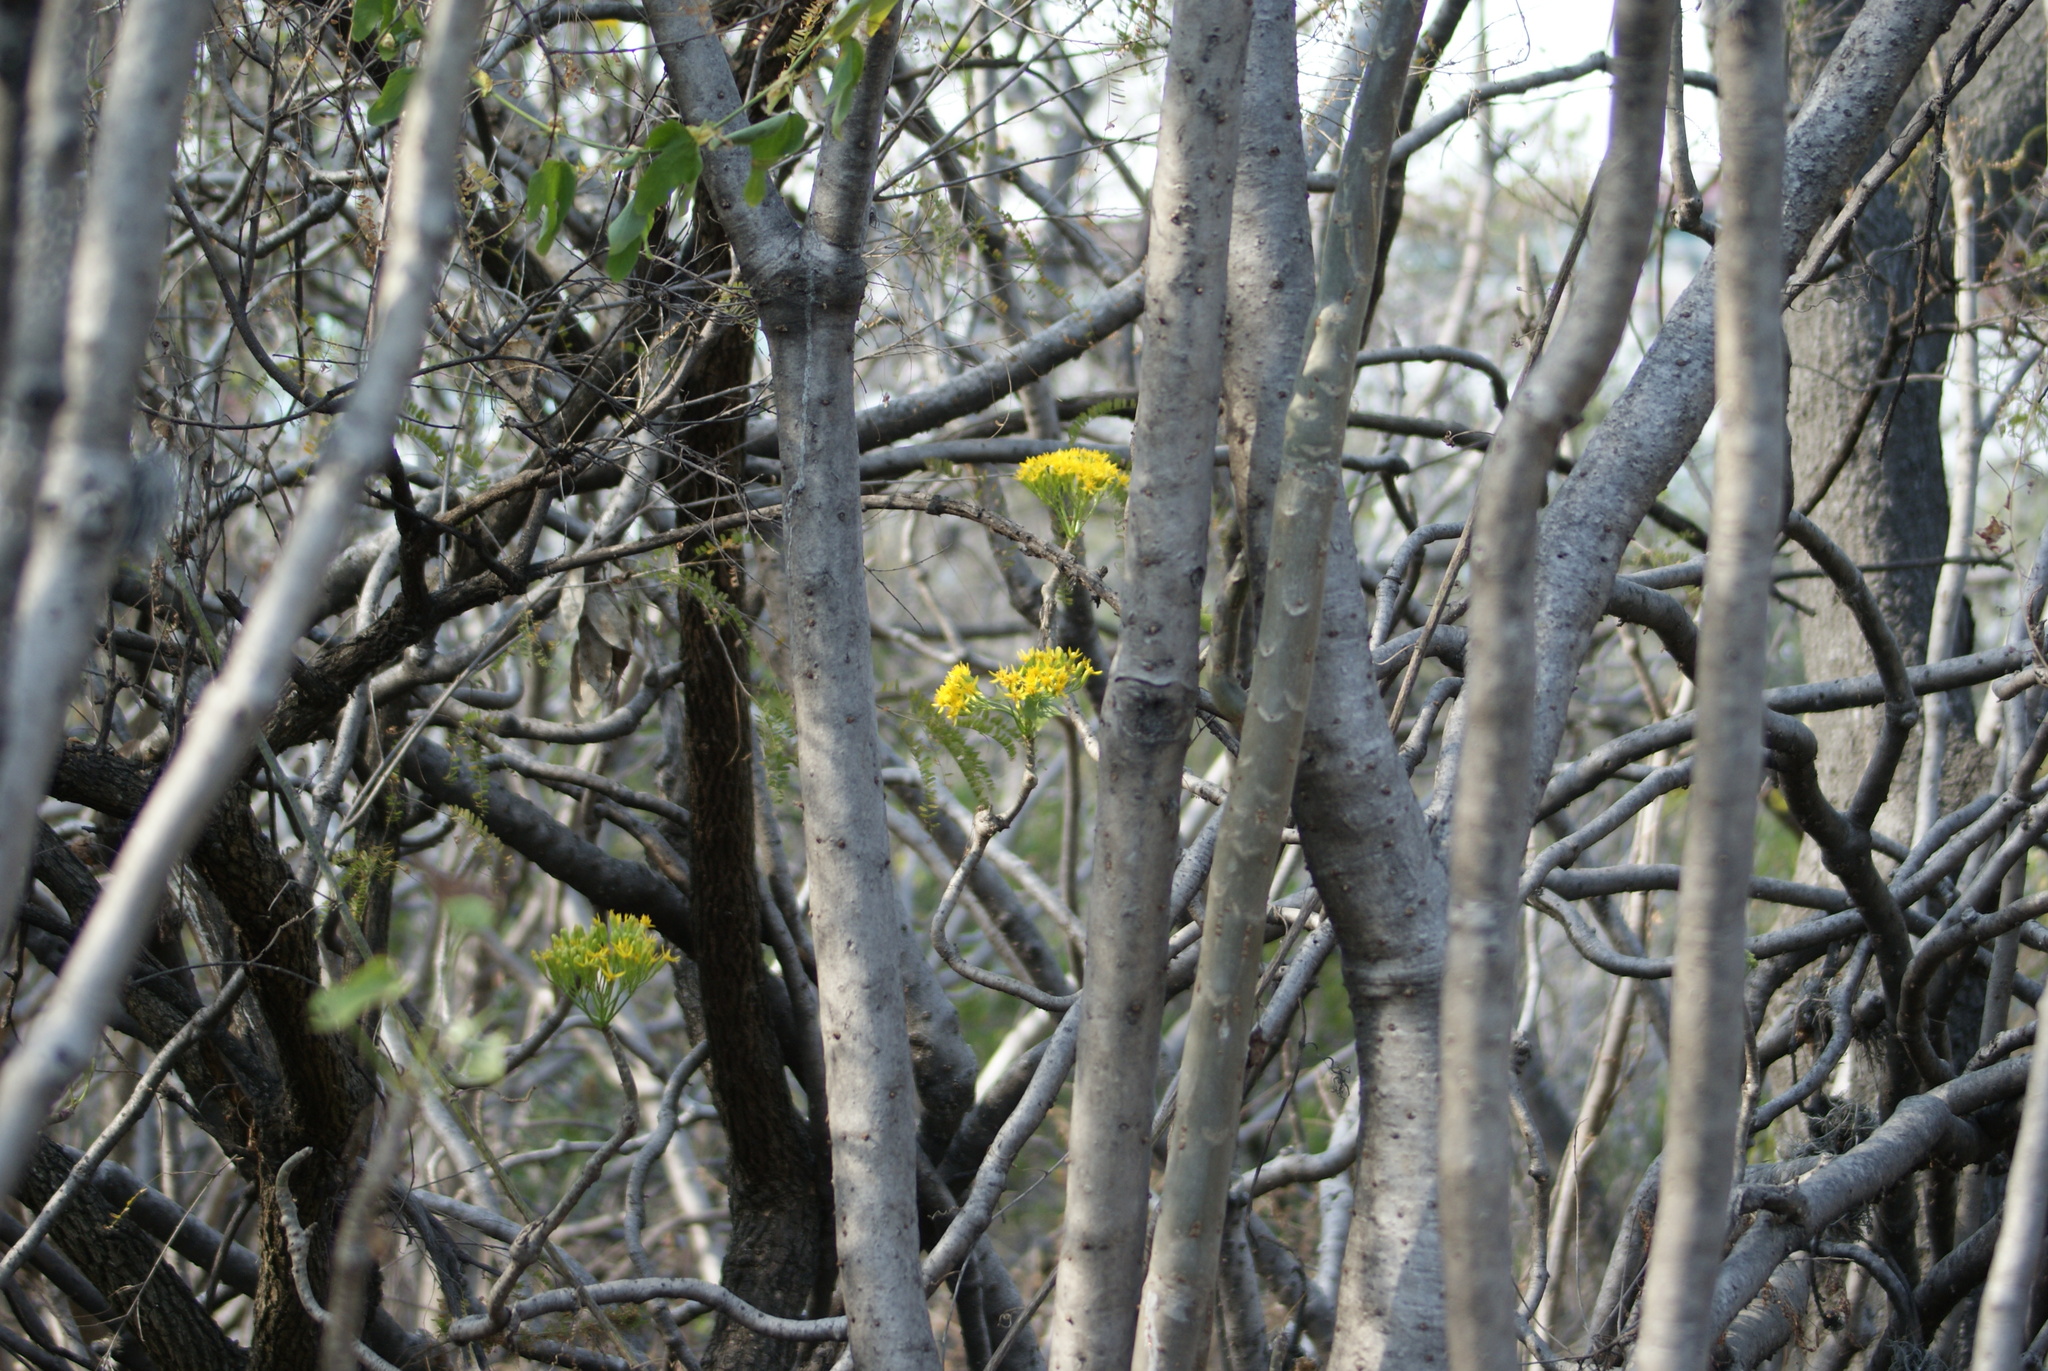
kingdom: Plantae
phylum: Tracheophyta
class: Magnoliopsida
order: Asterales
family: Asteraceae
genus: Pittocaulon
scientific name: Pittocaulon praecox
